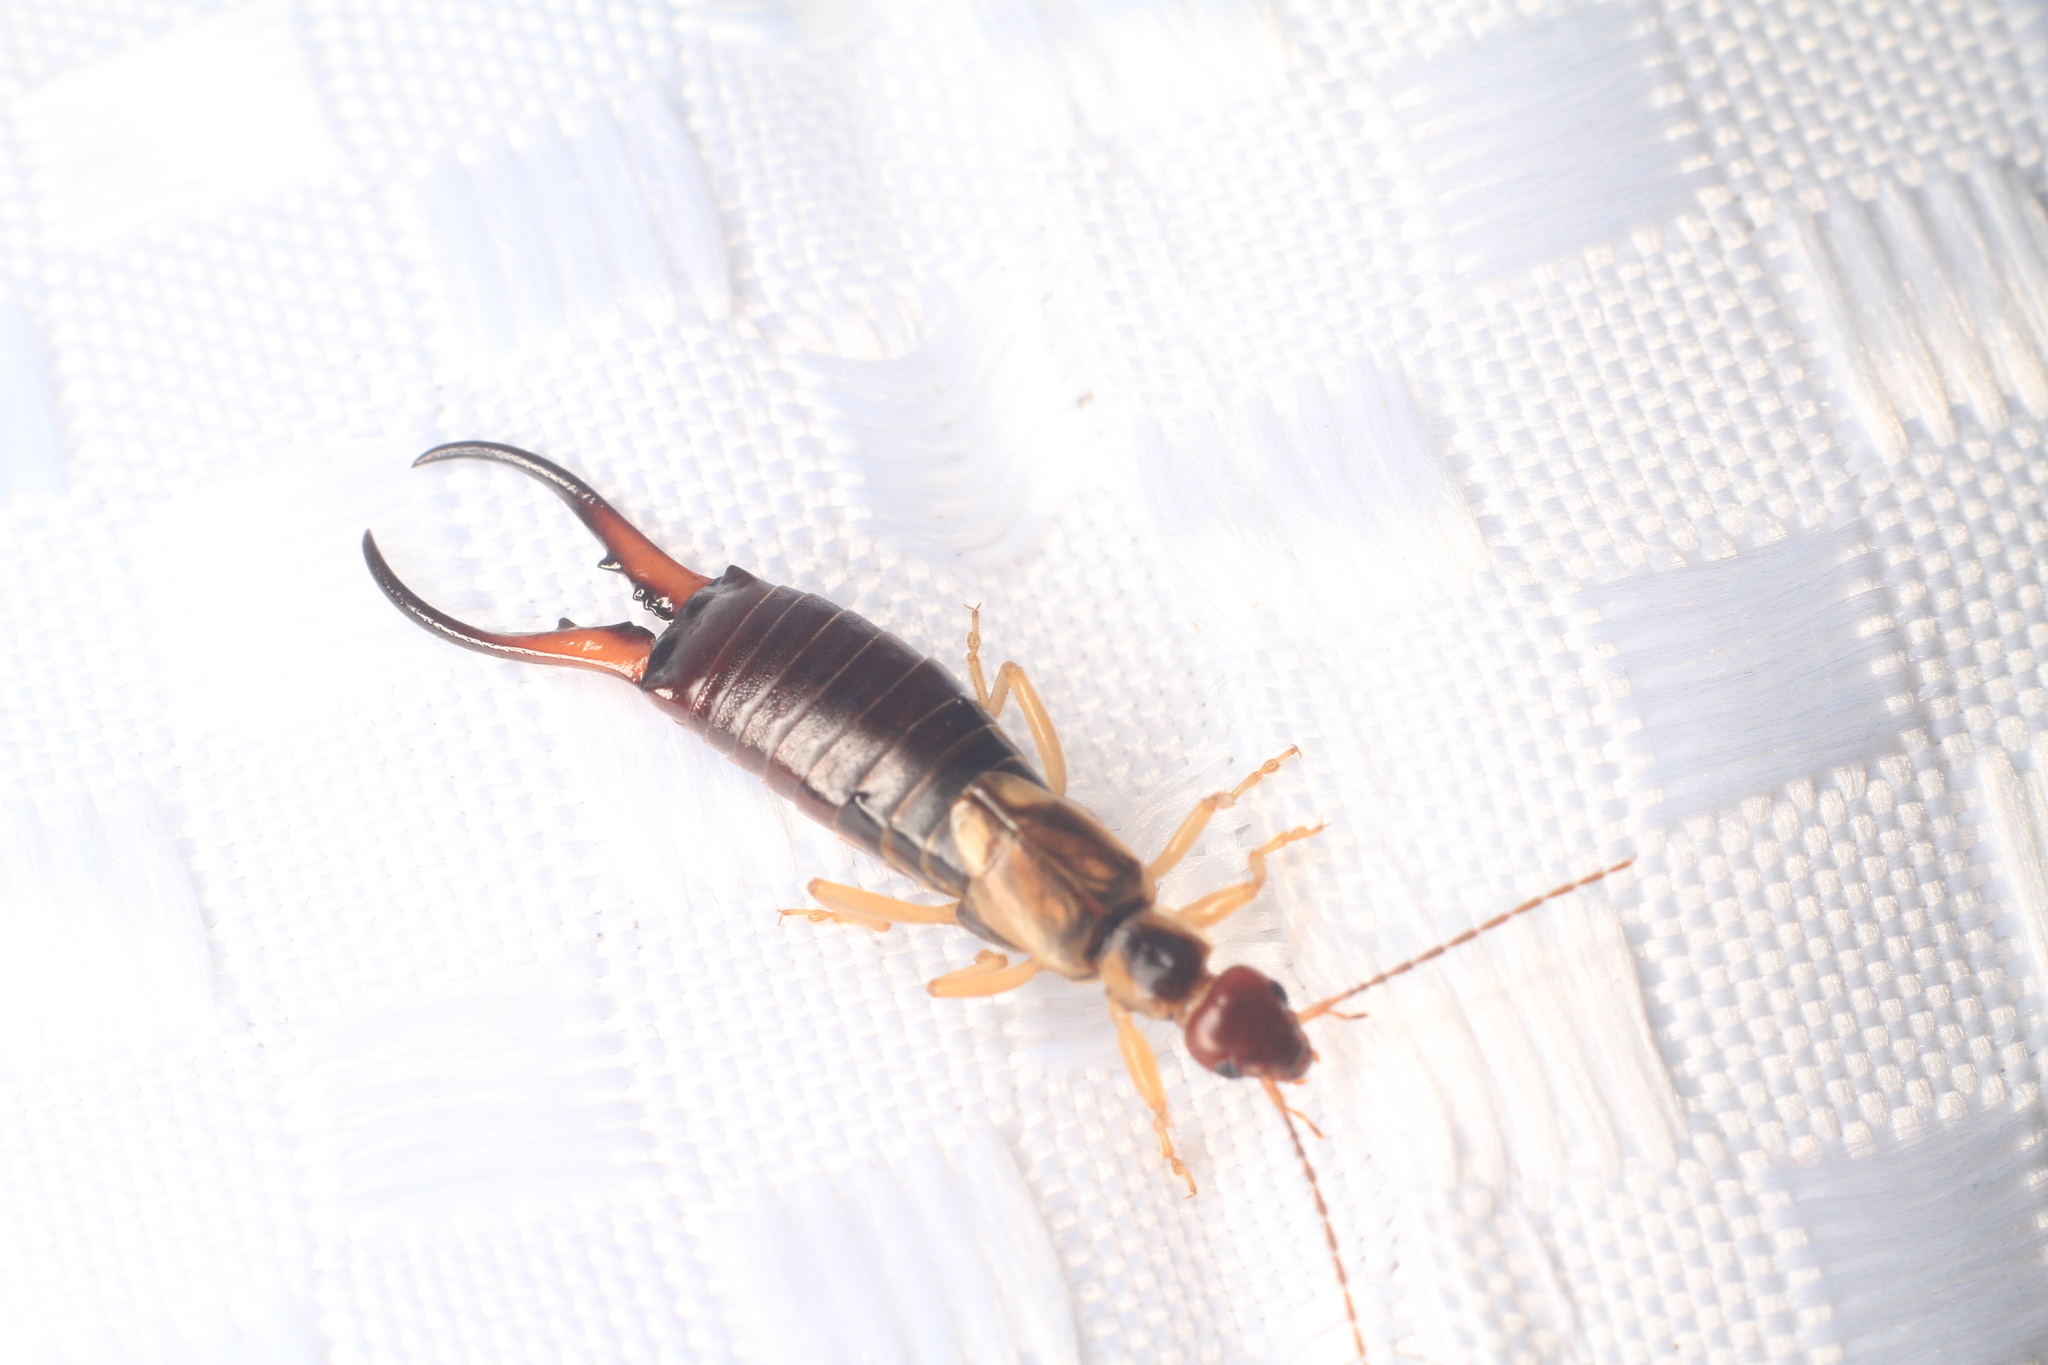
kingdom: Animalia
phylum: Arthropoda
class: Insecta
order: Dermaptera
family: Forficulidae
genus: Forficula
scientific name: Forficula
